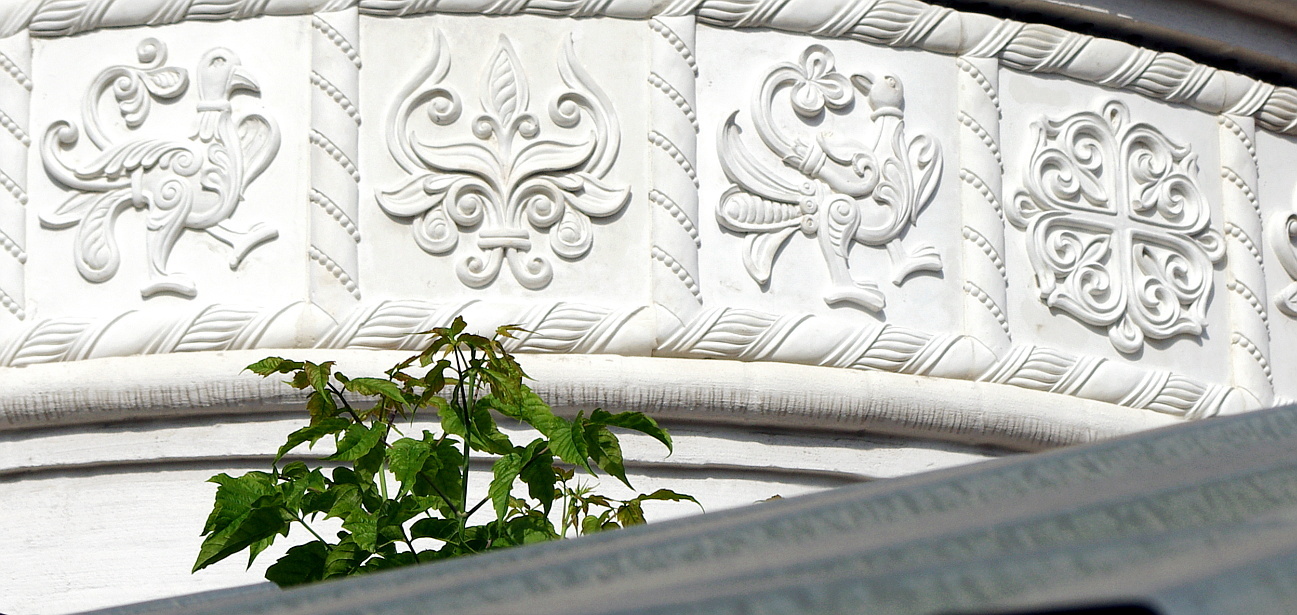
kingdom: Plantae
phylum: Tracheophyta
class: Magnoliopsida
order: Sapindales
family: Sapindaceae
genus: Acer
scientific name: Acer negundo
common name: Ashleaf maple
